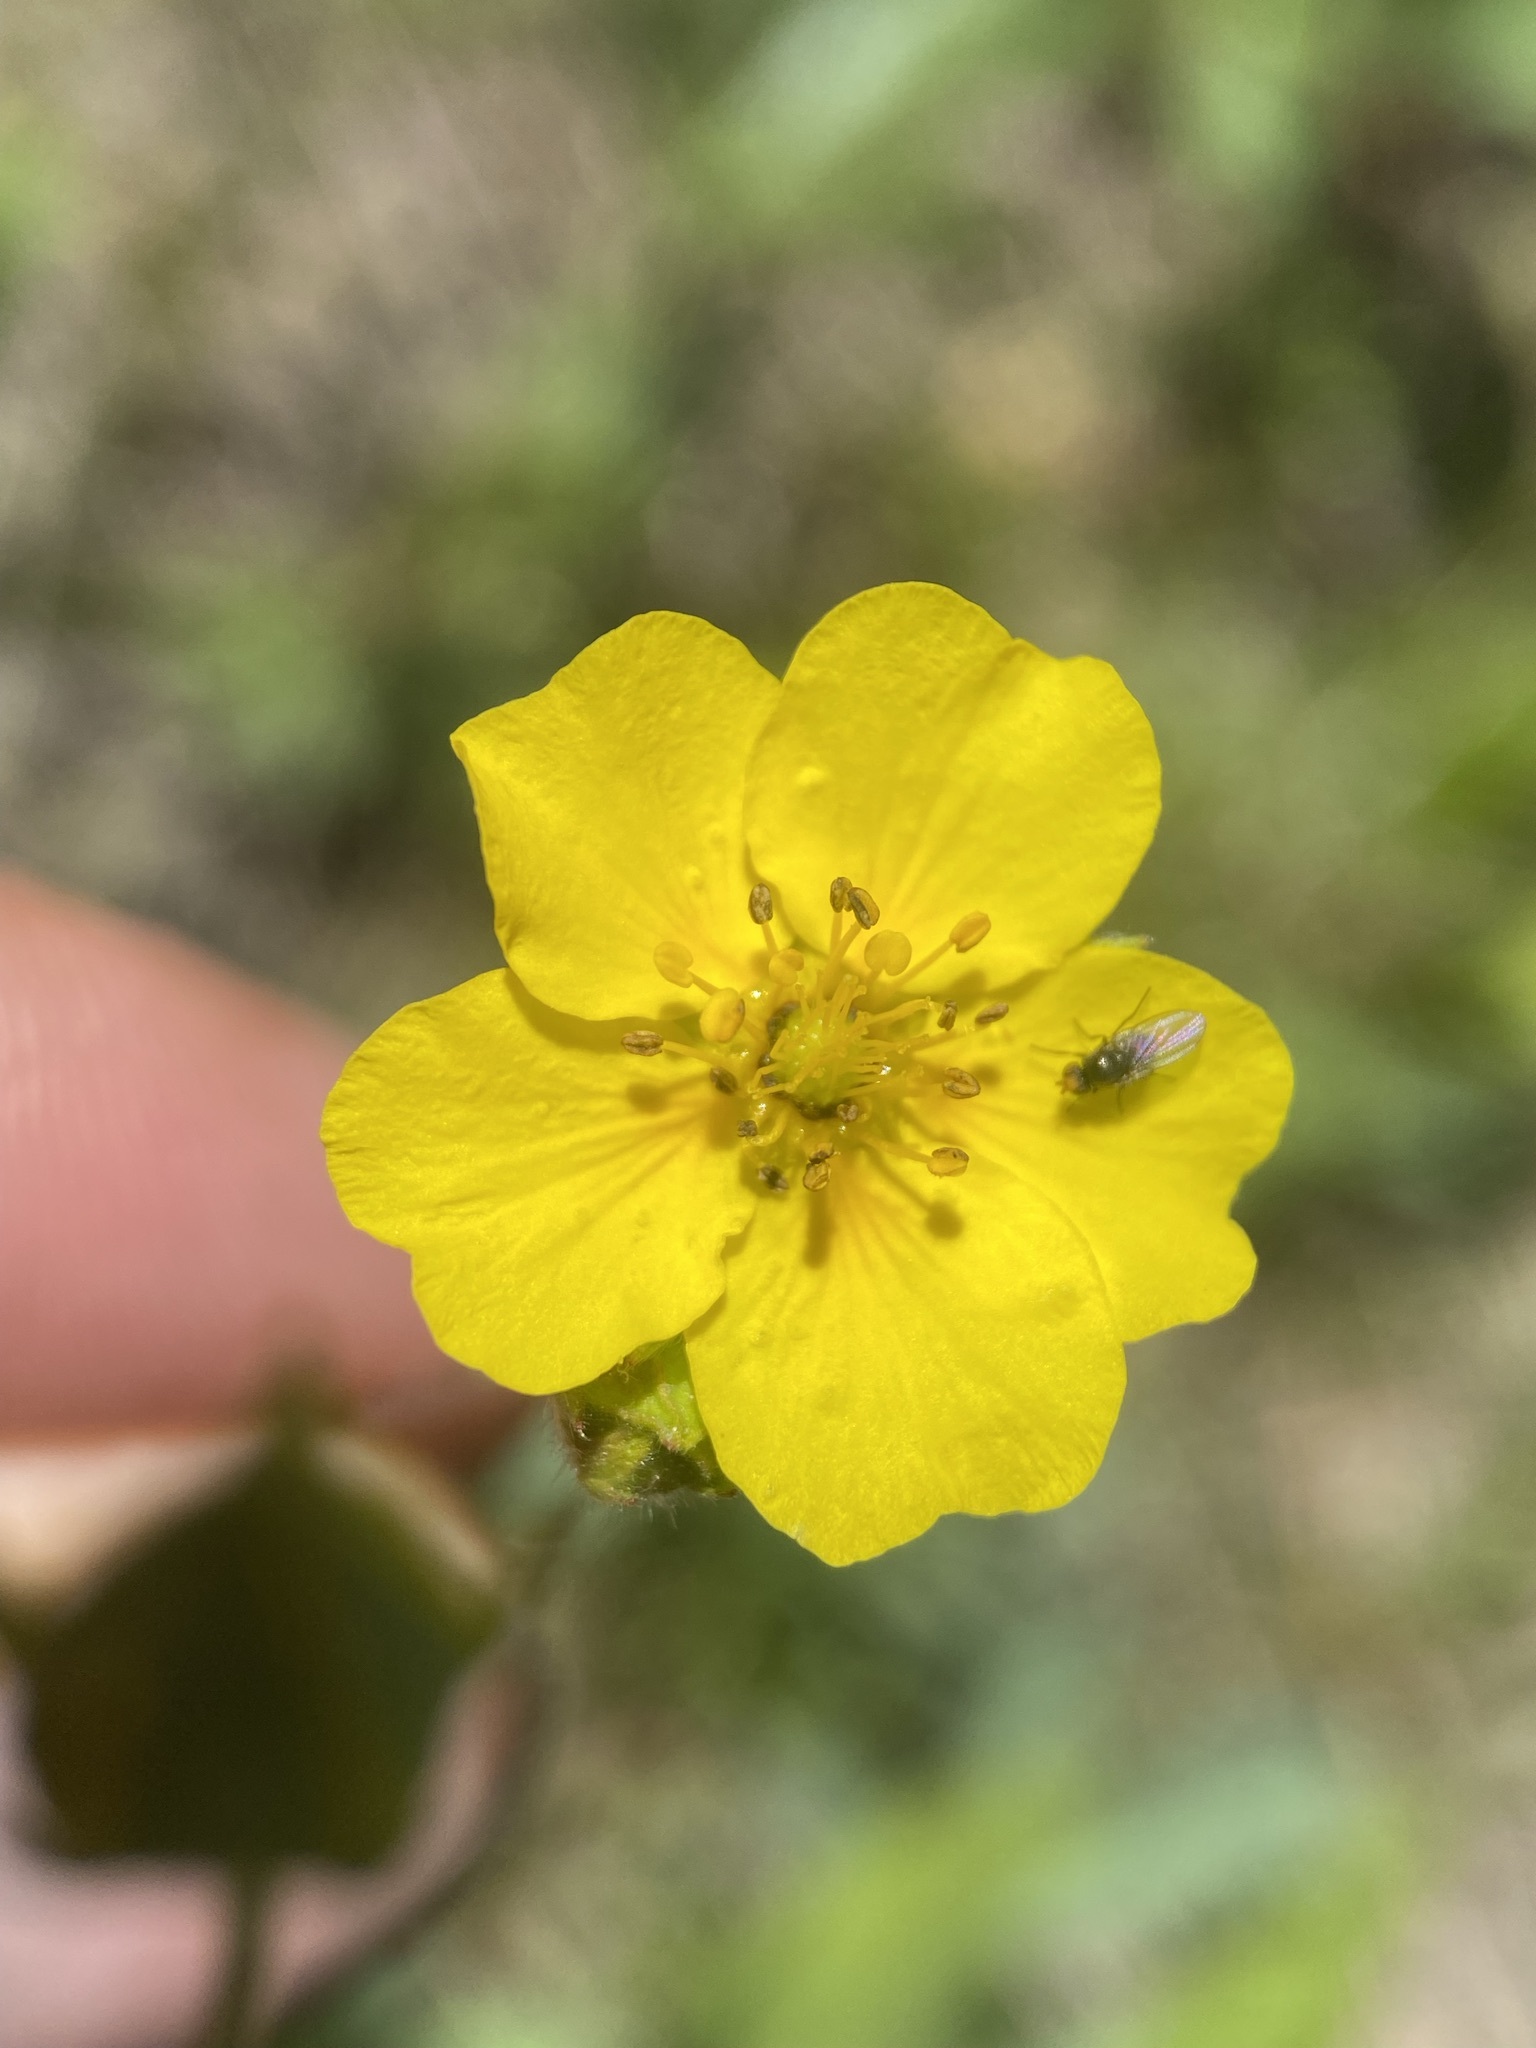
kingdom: Plantae
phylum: Tracheophyta
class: Magnoliopsida
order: Rosales
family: Rosaceae
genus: Potentilla
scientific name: Potentilla glaucophylla
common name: Blue-leaved cinquefoil
